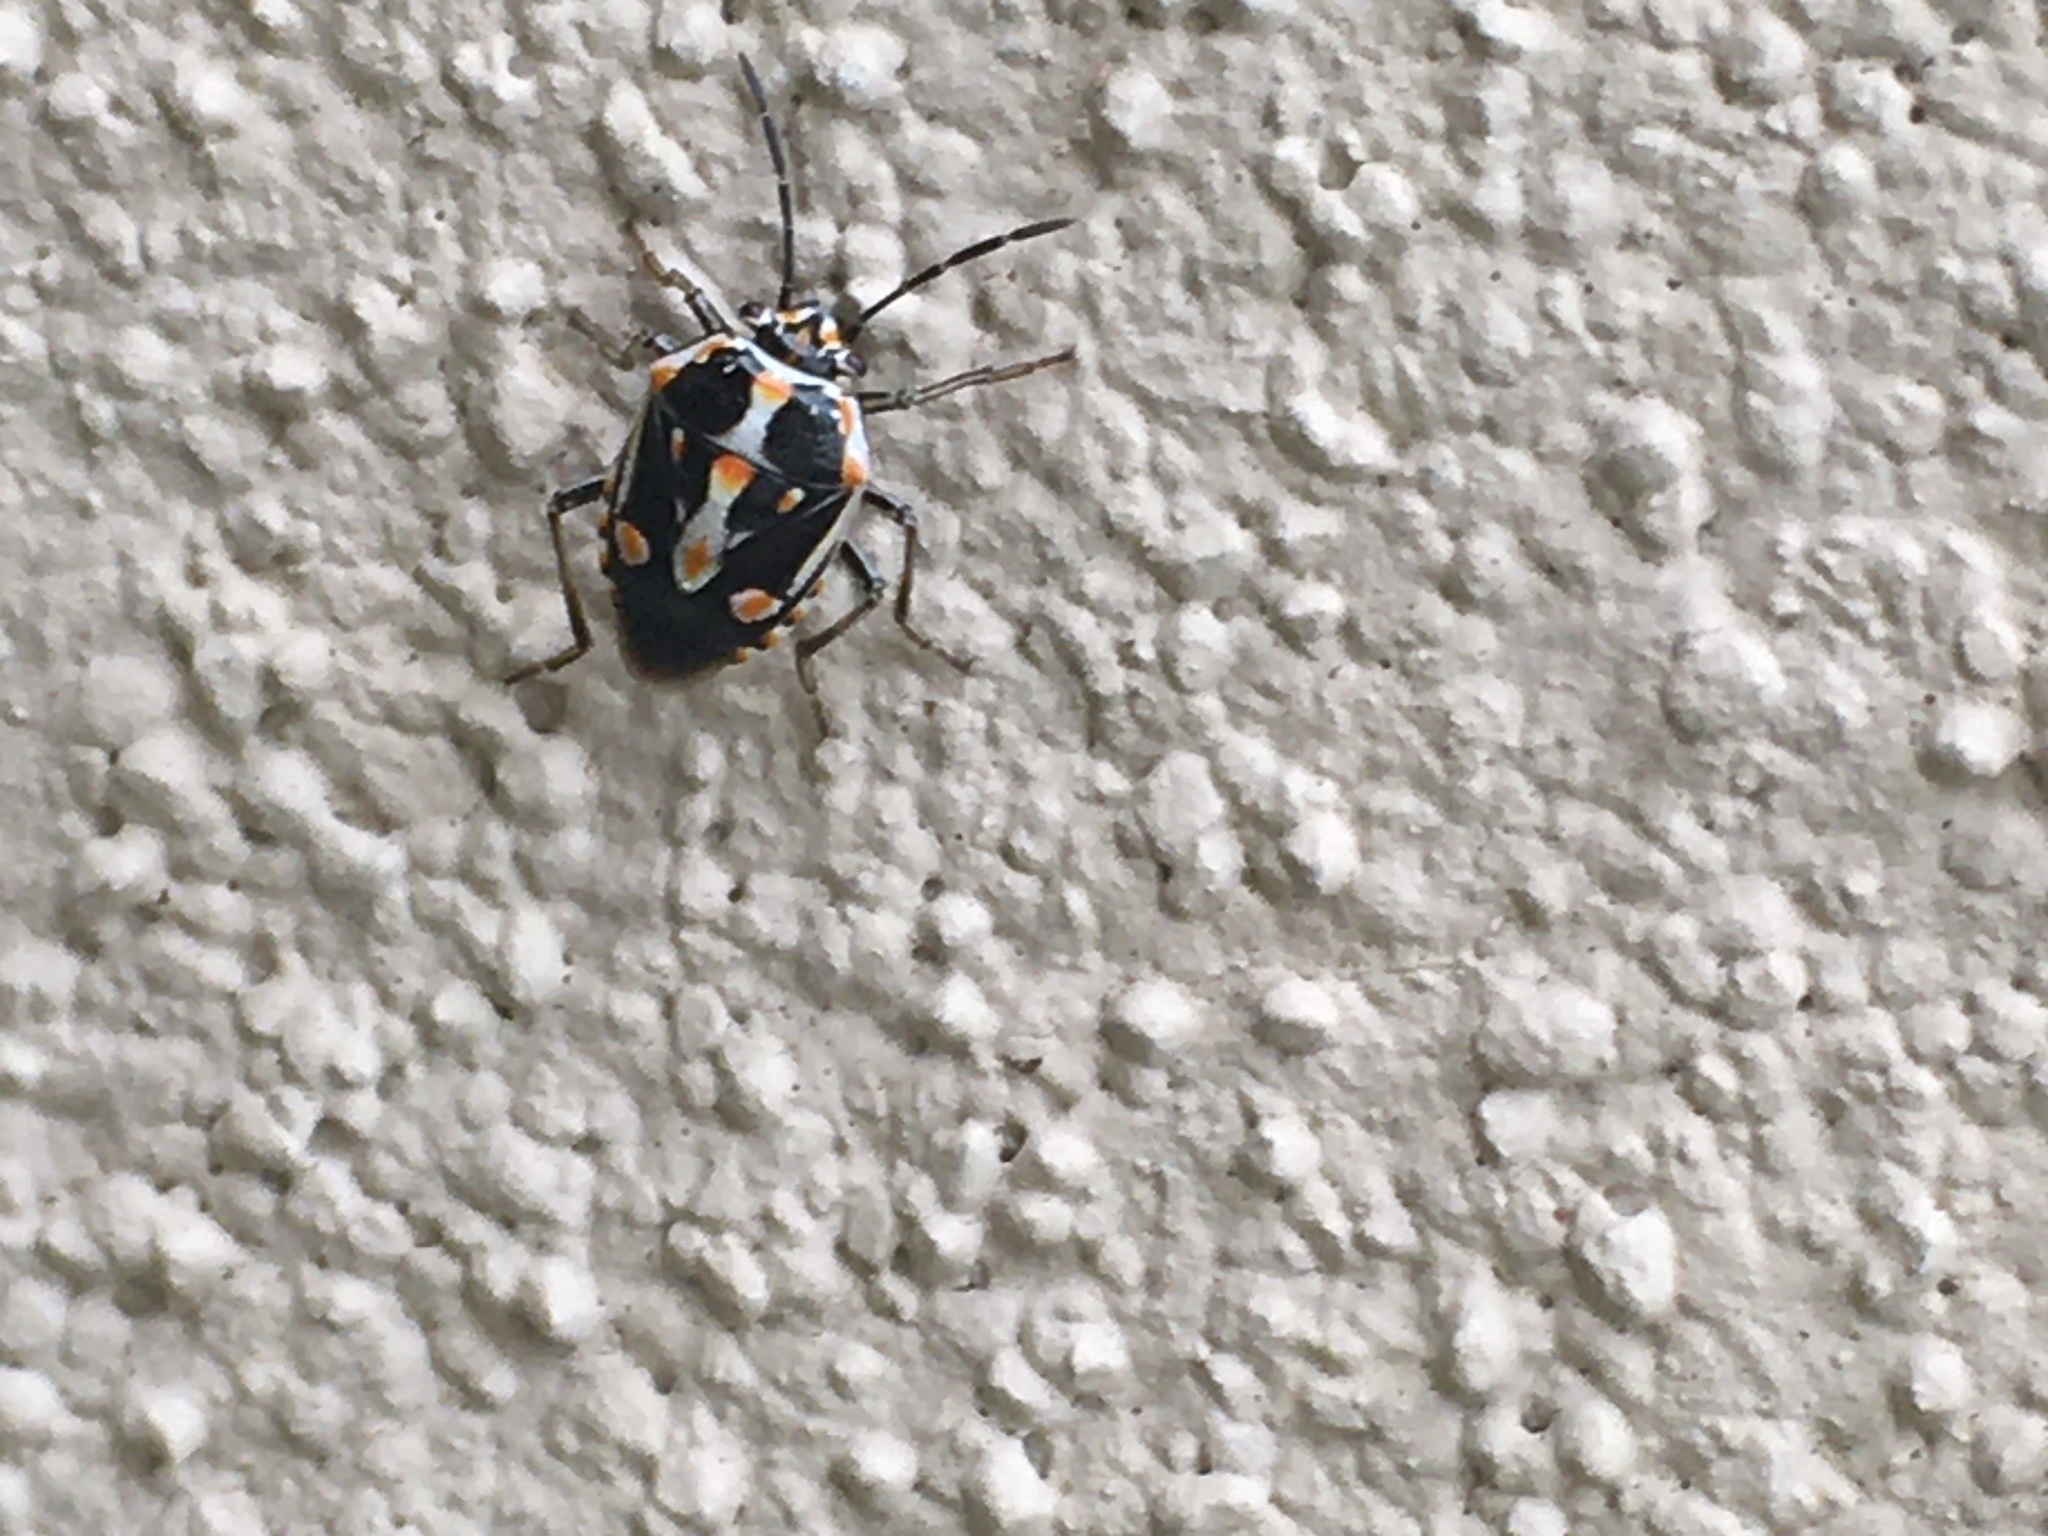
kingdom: Animalia
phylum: Arthropoda
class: Insecta
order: Hemiptera
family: Pentatomidae
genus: Bagrada
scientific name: Bagrada hilaris
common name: Bagrada bug
